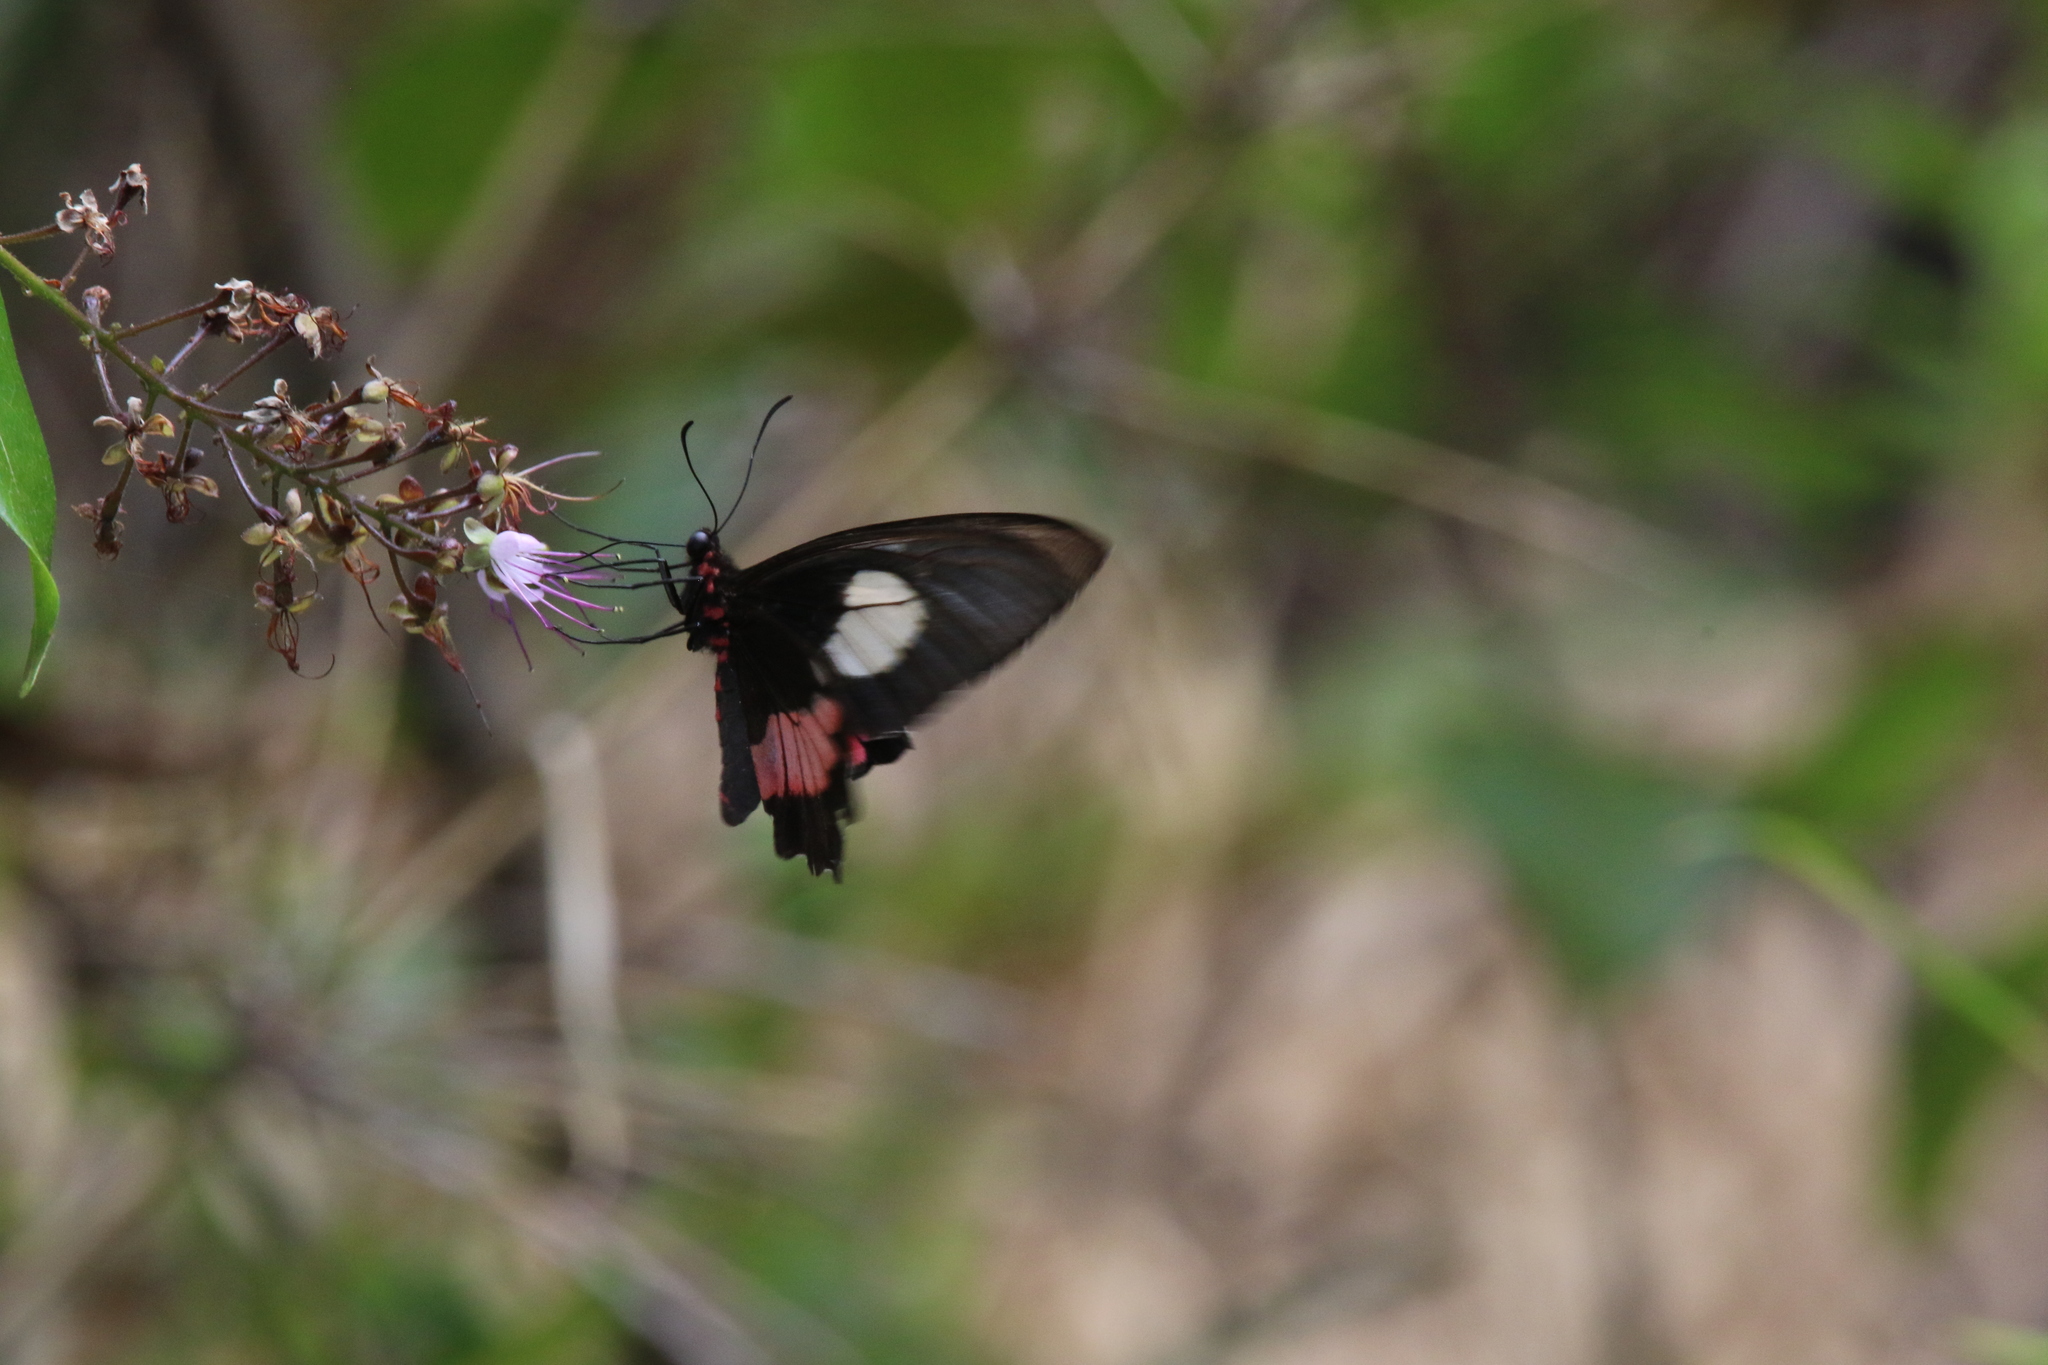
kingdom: Animalia
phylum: Arthropoda
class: Insecta
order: Lepidoptera
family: Papilionidae
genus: Parides
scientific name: Parides anchises
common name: Cattle heart
